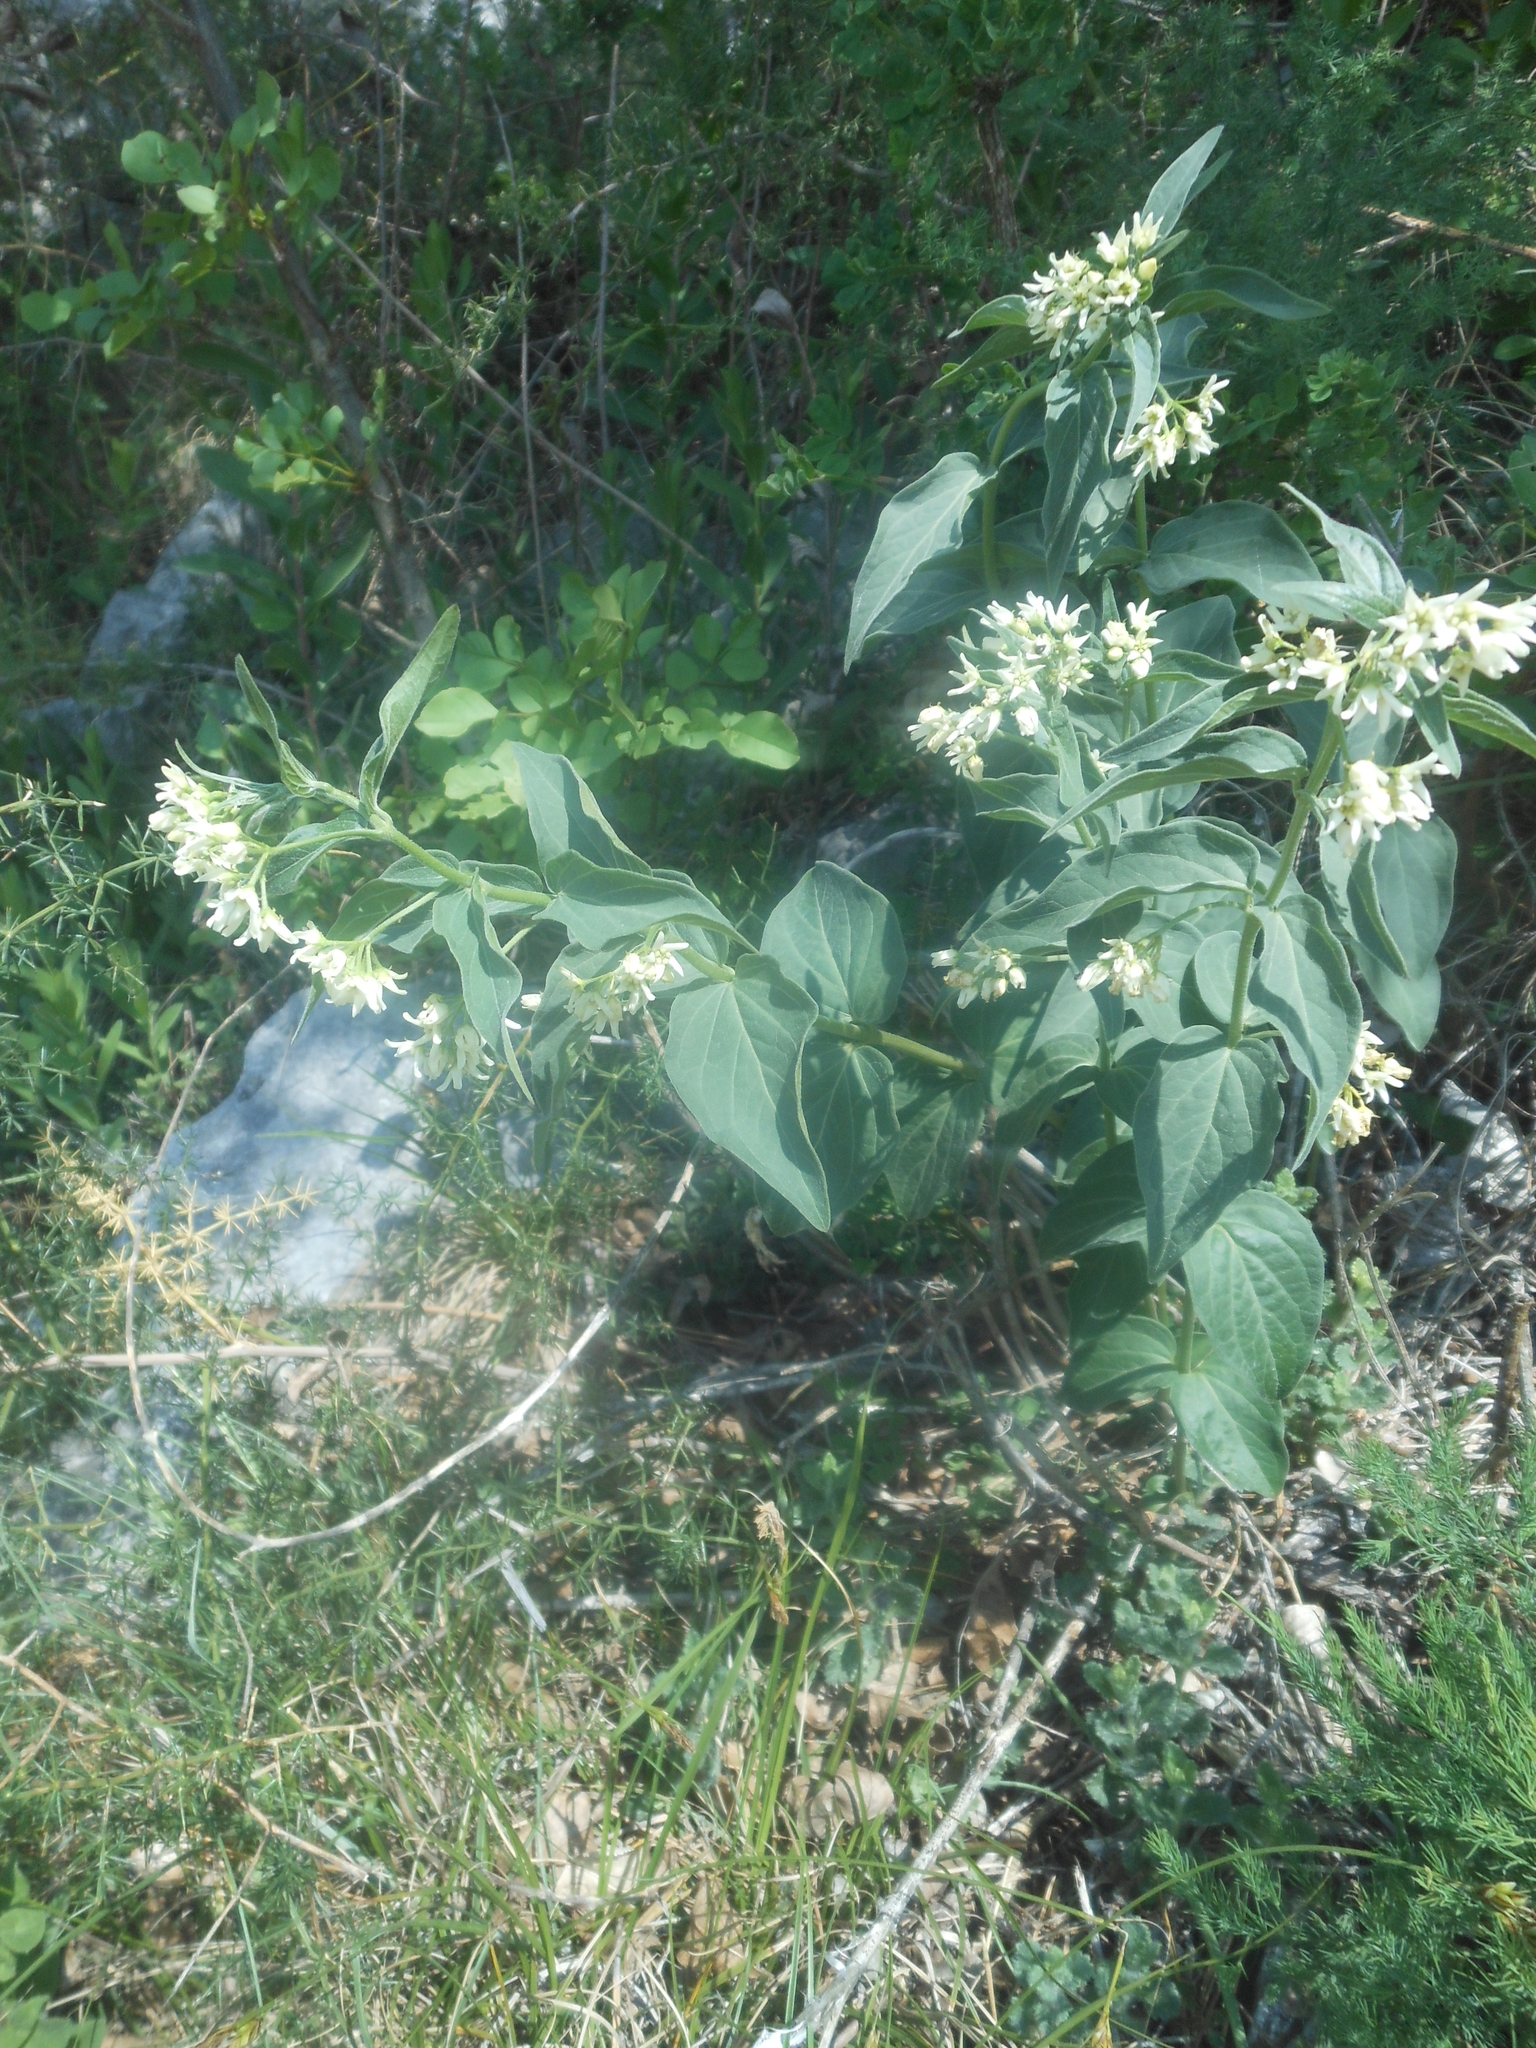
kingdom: Plantae
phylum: Tracheophyta
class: Magnoliopsida
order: Gentianales
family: Apocynaceae
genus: Vincetoxicum
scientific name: Vincetoxicum hirundinaria
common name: White swallowwort
